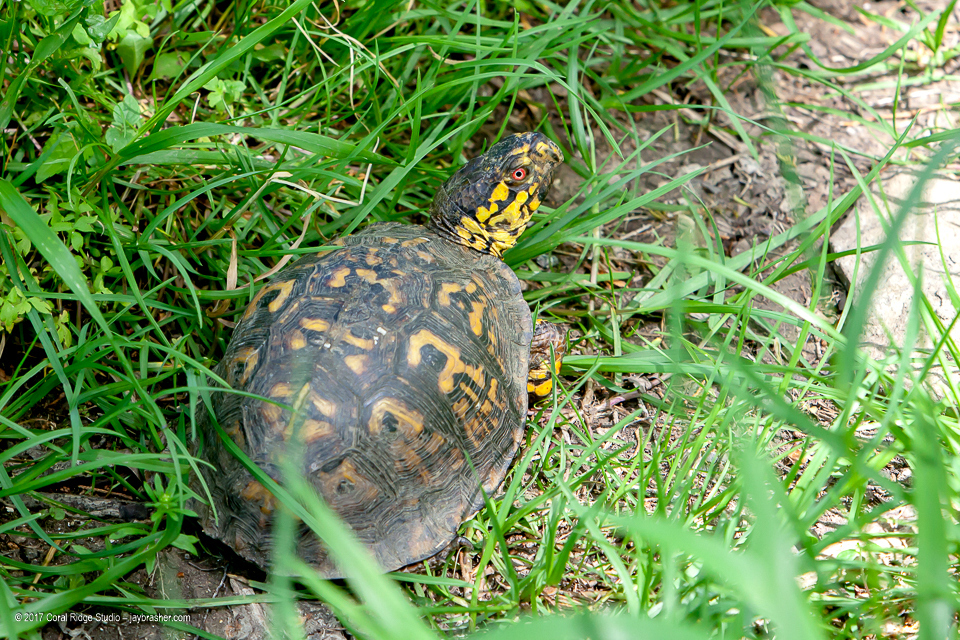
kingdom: Animalia
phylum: Chordata
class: Testudines
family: Emydidae
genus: Terrapene
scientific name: Terrapene carolina
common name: Common box turtle
